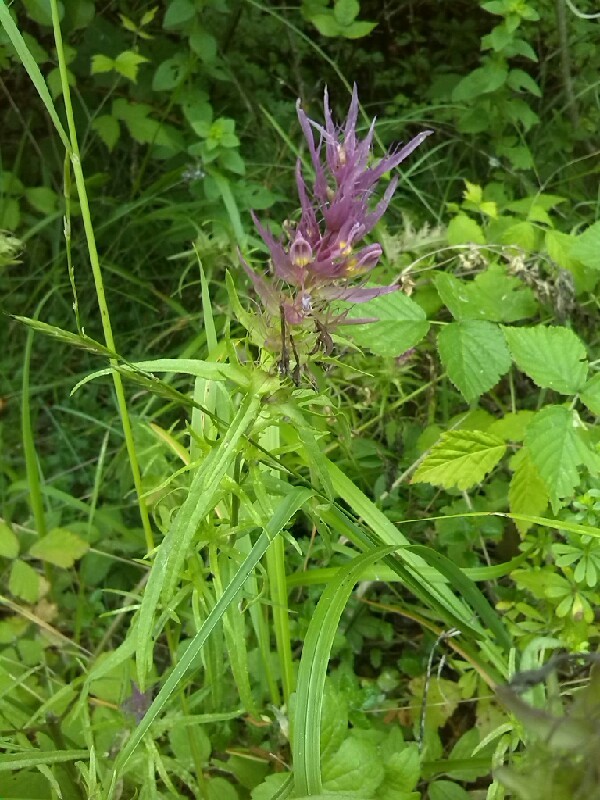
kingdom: Plantae
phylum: Tracheophyta
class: Magnoliopsida
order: Lamiales
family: Orobanchaceae
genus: Melampyrum
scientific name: Melampyrum arvense
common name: Field cow-wheat
